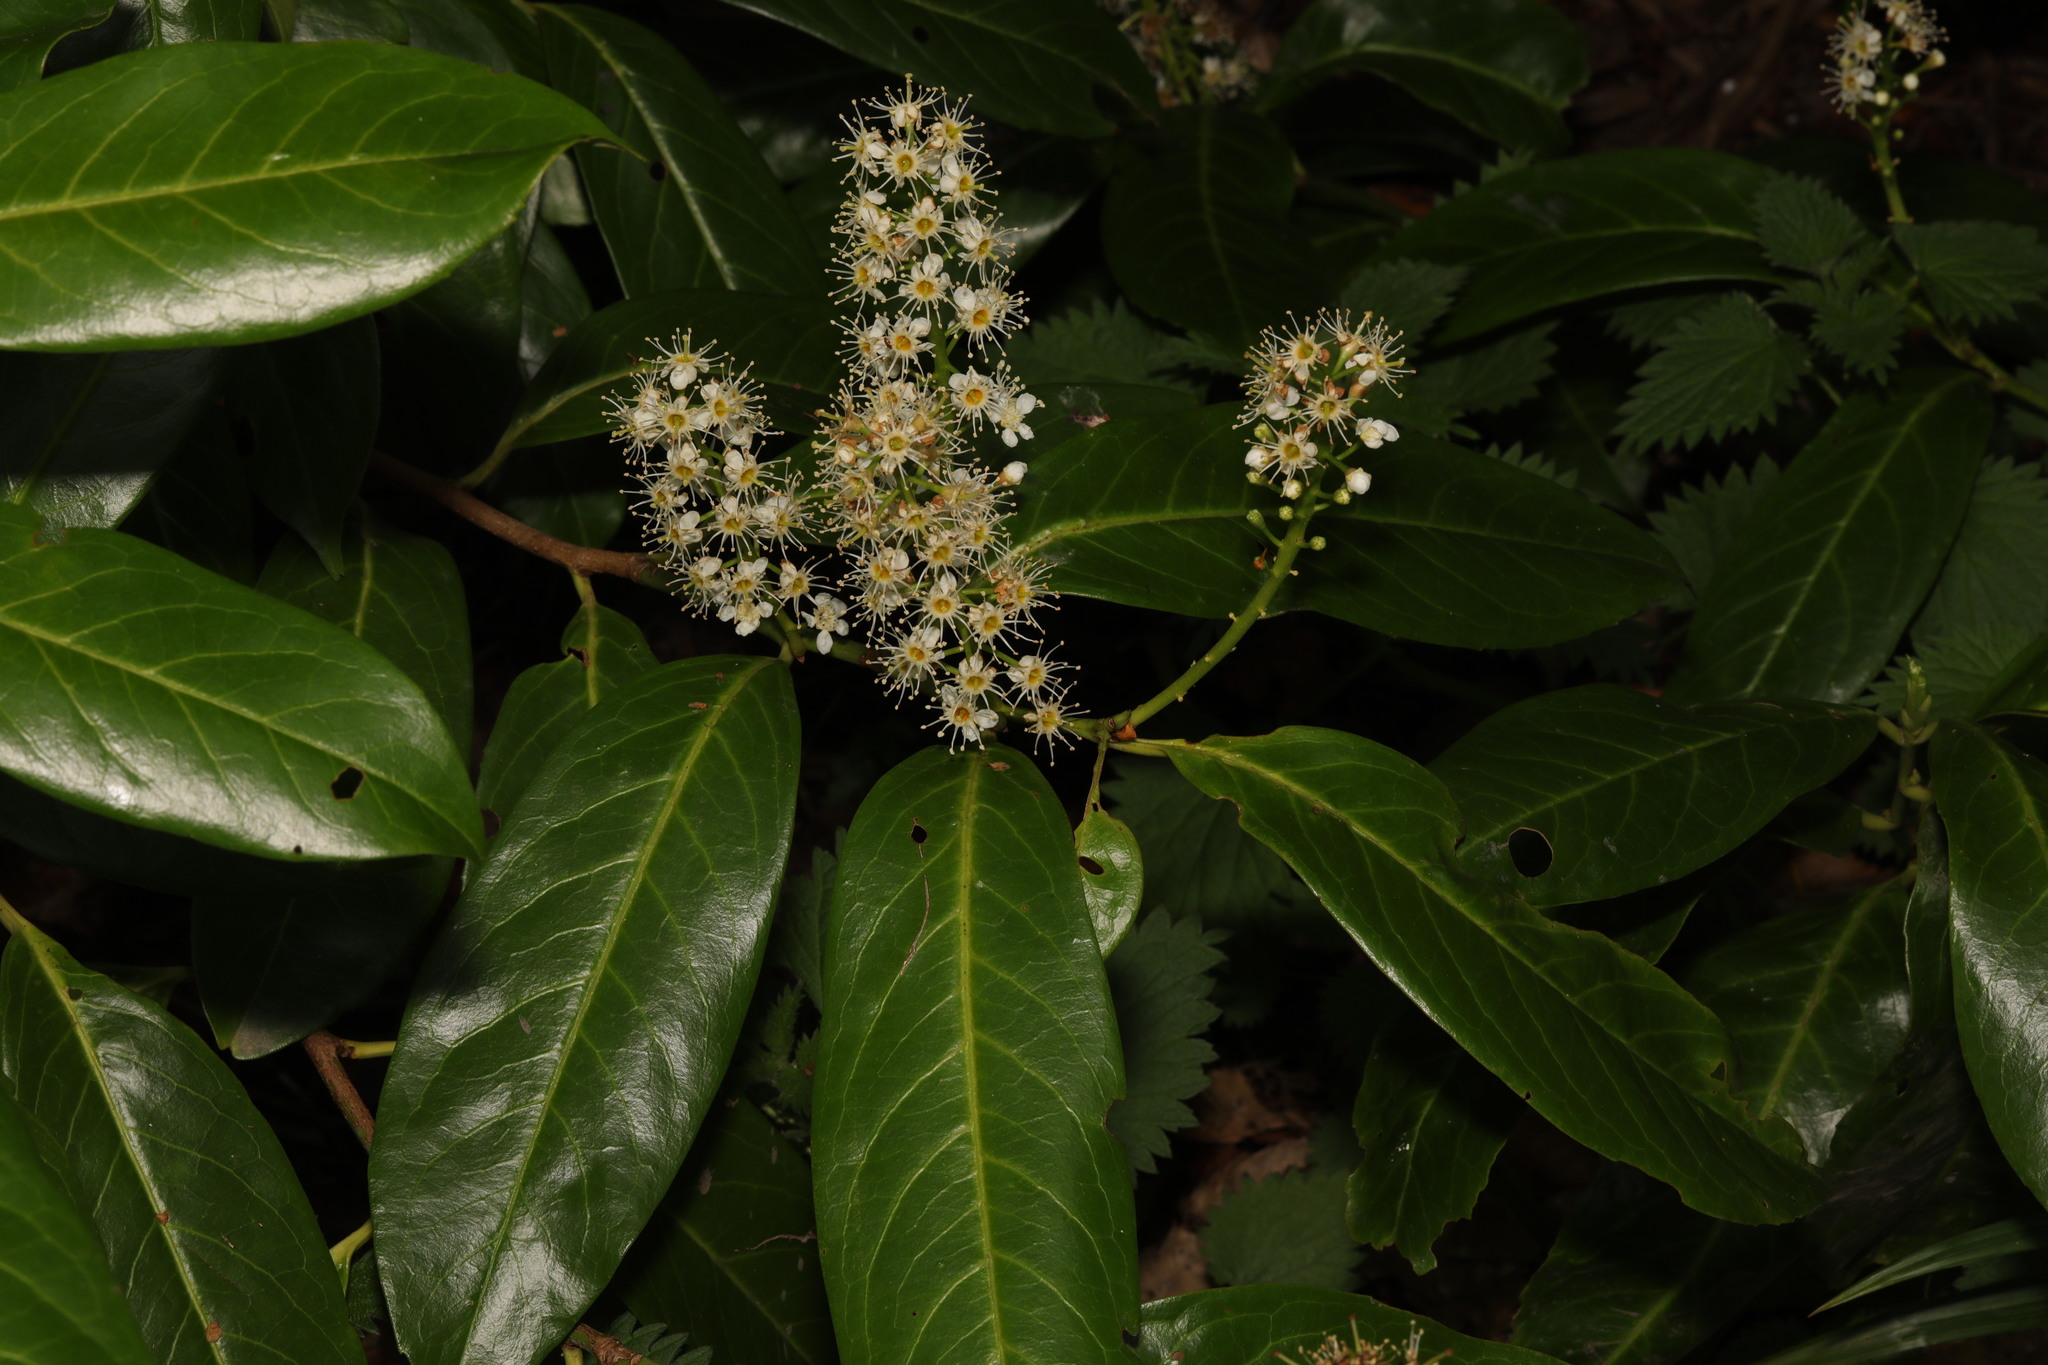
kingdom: Plantae
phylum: Tracheophyta
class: Magnoliopsida
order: Rosales
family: Rosaceae
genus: Prunus
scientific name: Prunus laurocerasus
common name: Cherry laurel
